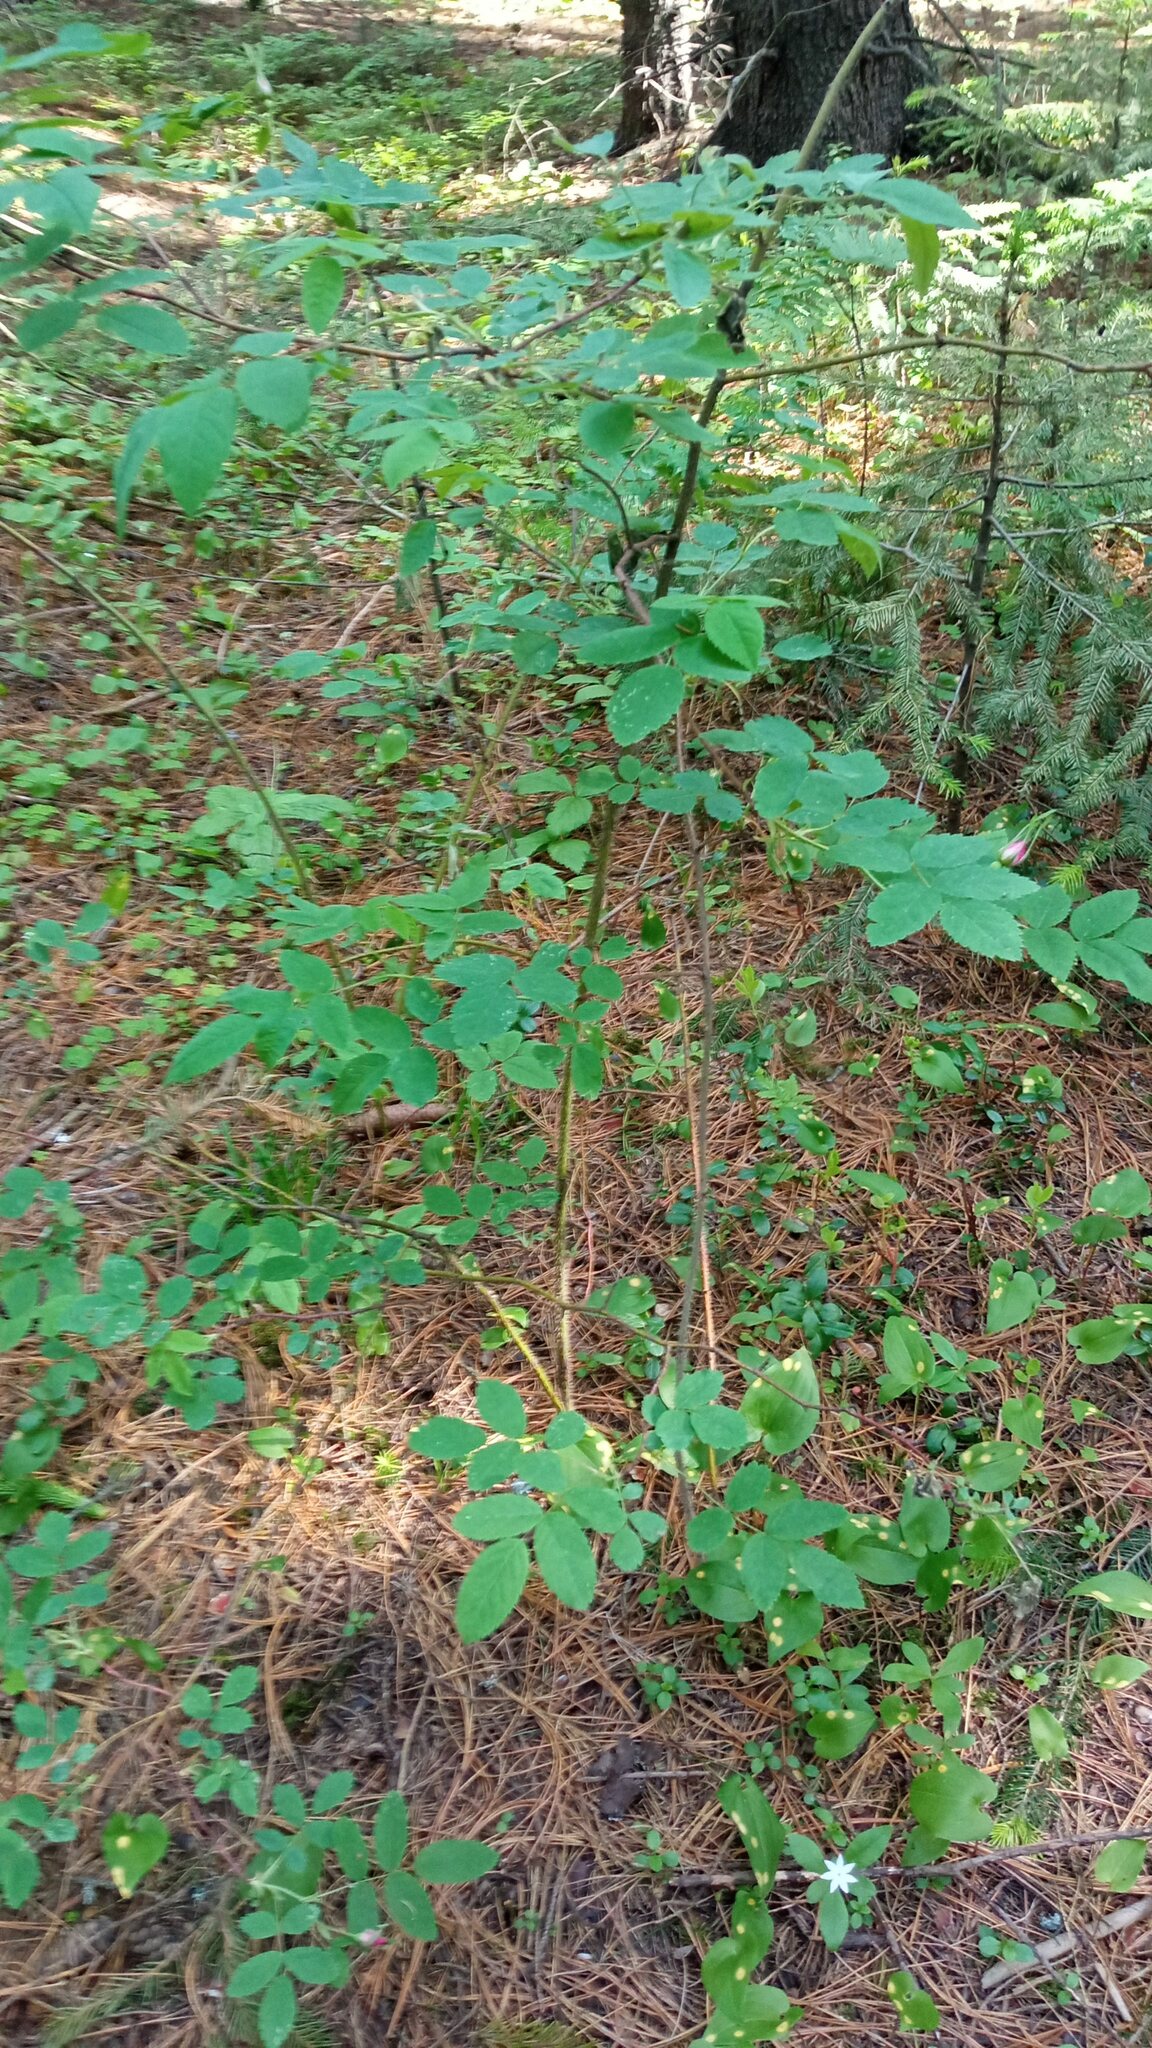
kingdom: Plantae
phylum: Tracheophyta
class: Magnoliopsida
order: Rosales
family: Rosaceae
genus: Rosa
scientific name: Rosa acicularis
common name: Prickly rose
